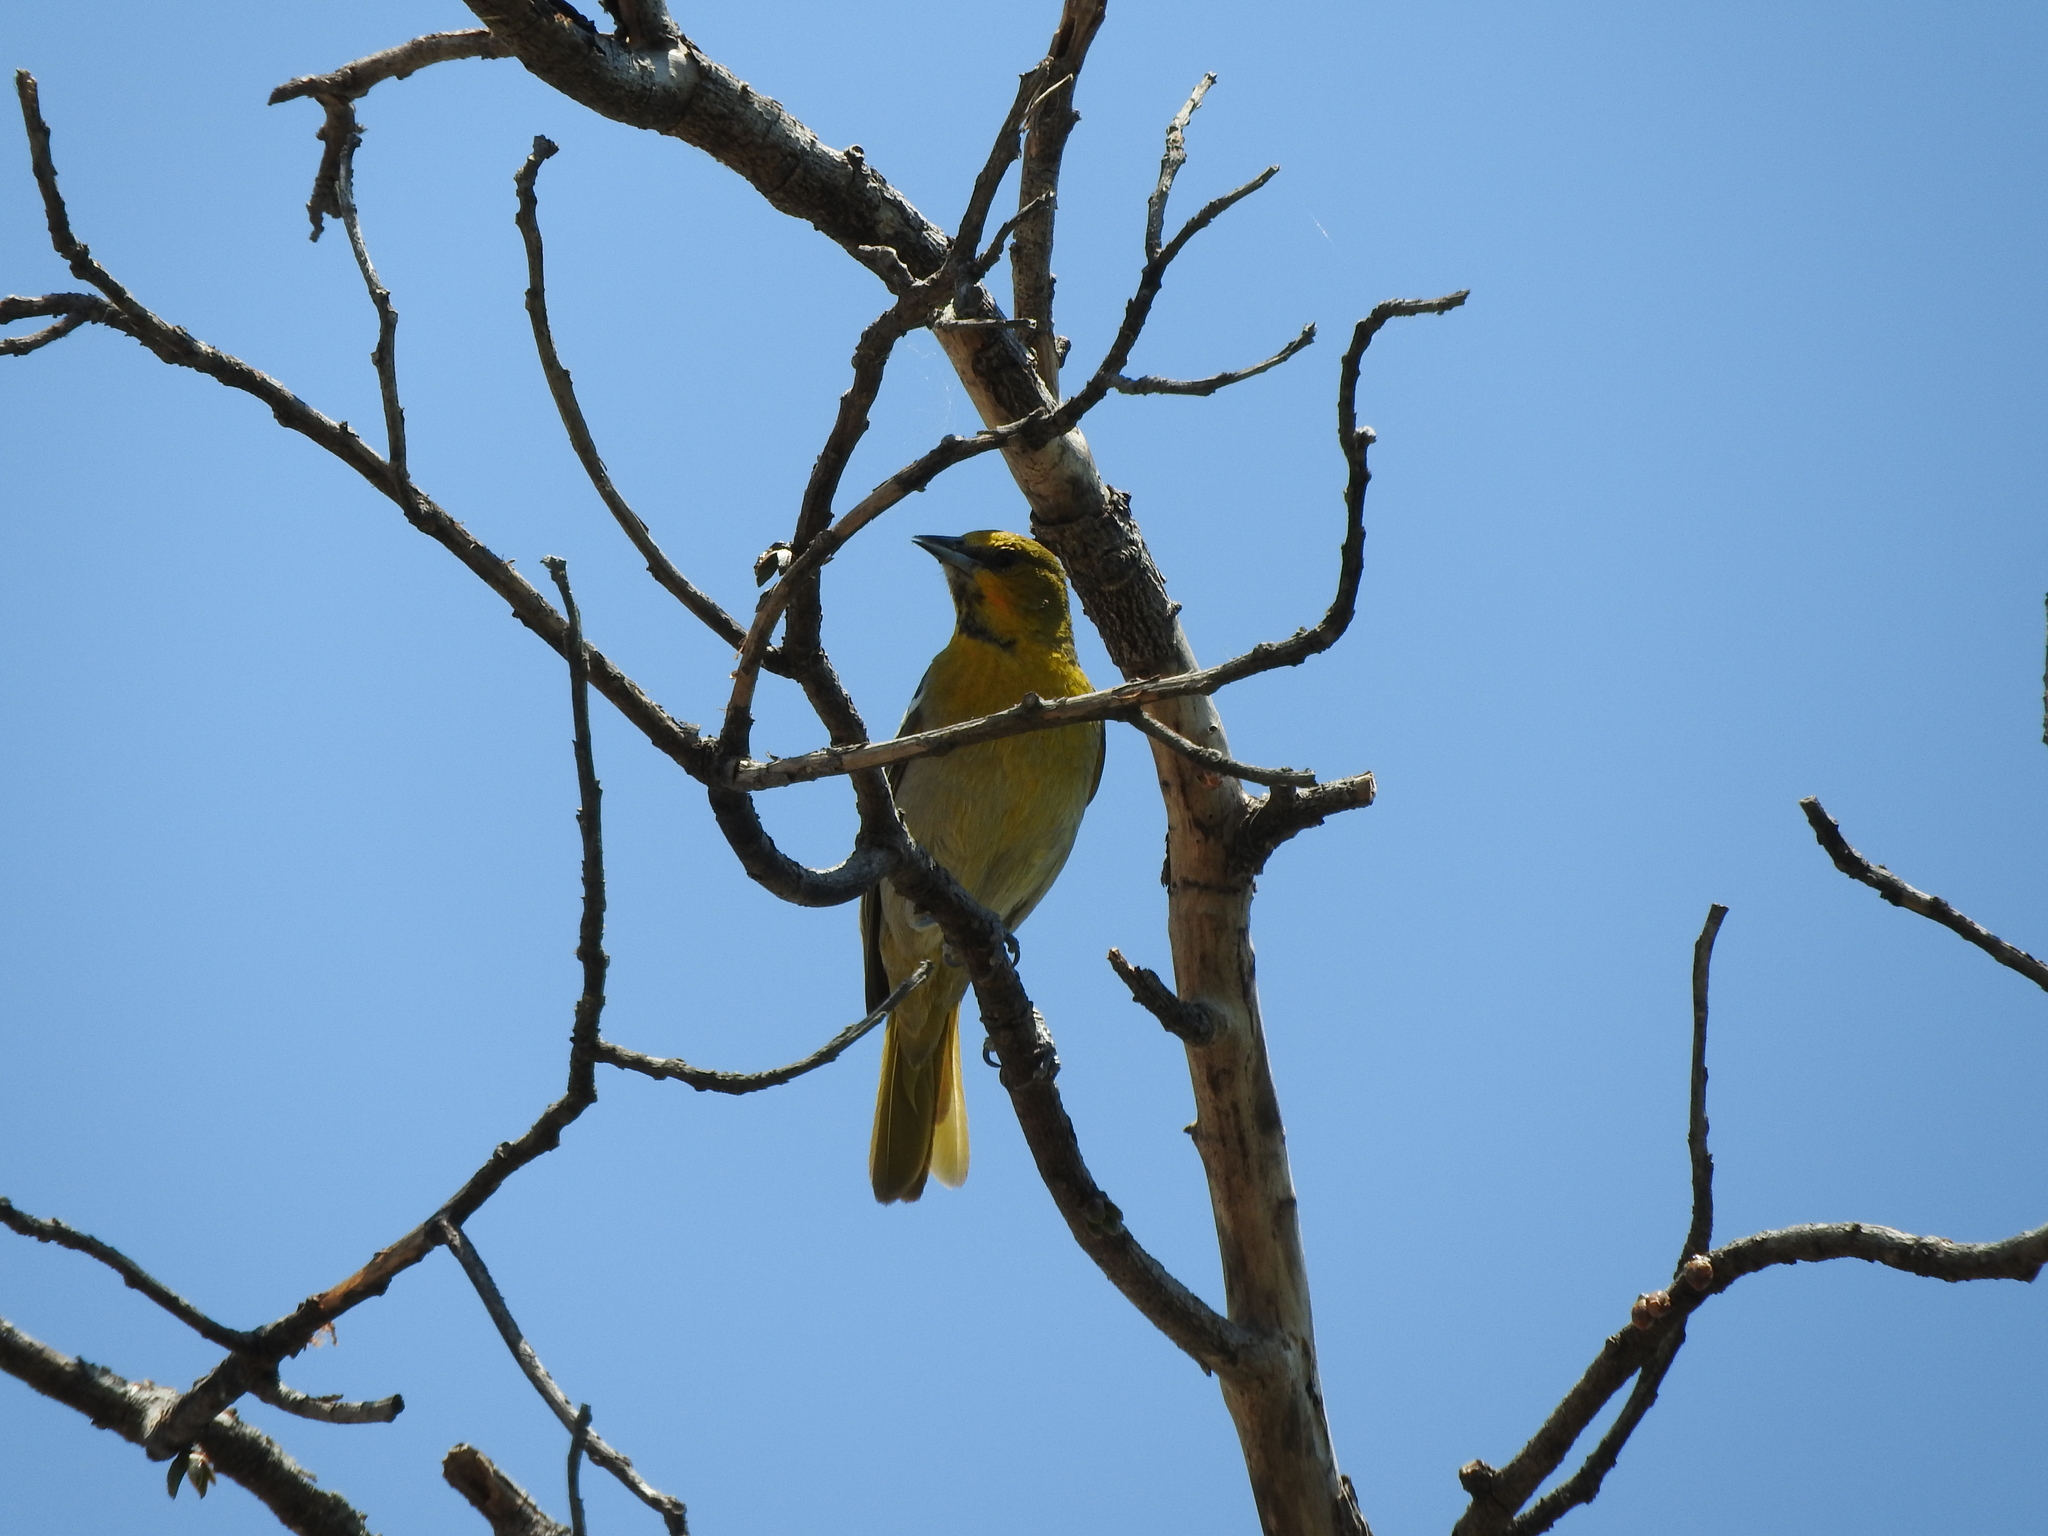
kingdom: Animalia
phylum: Chordata
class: Aves
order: Passeriformes
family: Icteridae
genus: Icterus
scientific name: Icterus bullockii
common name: Bullock's oriole
